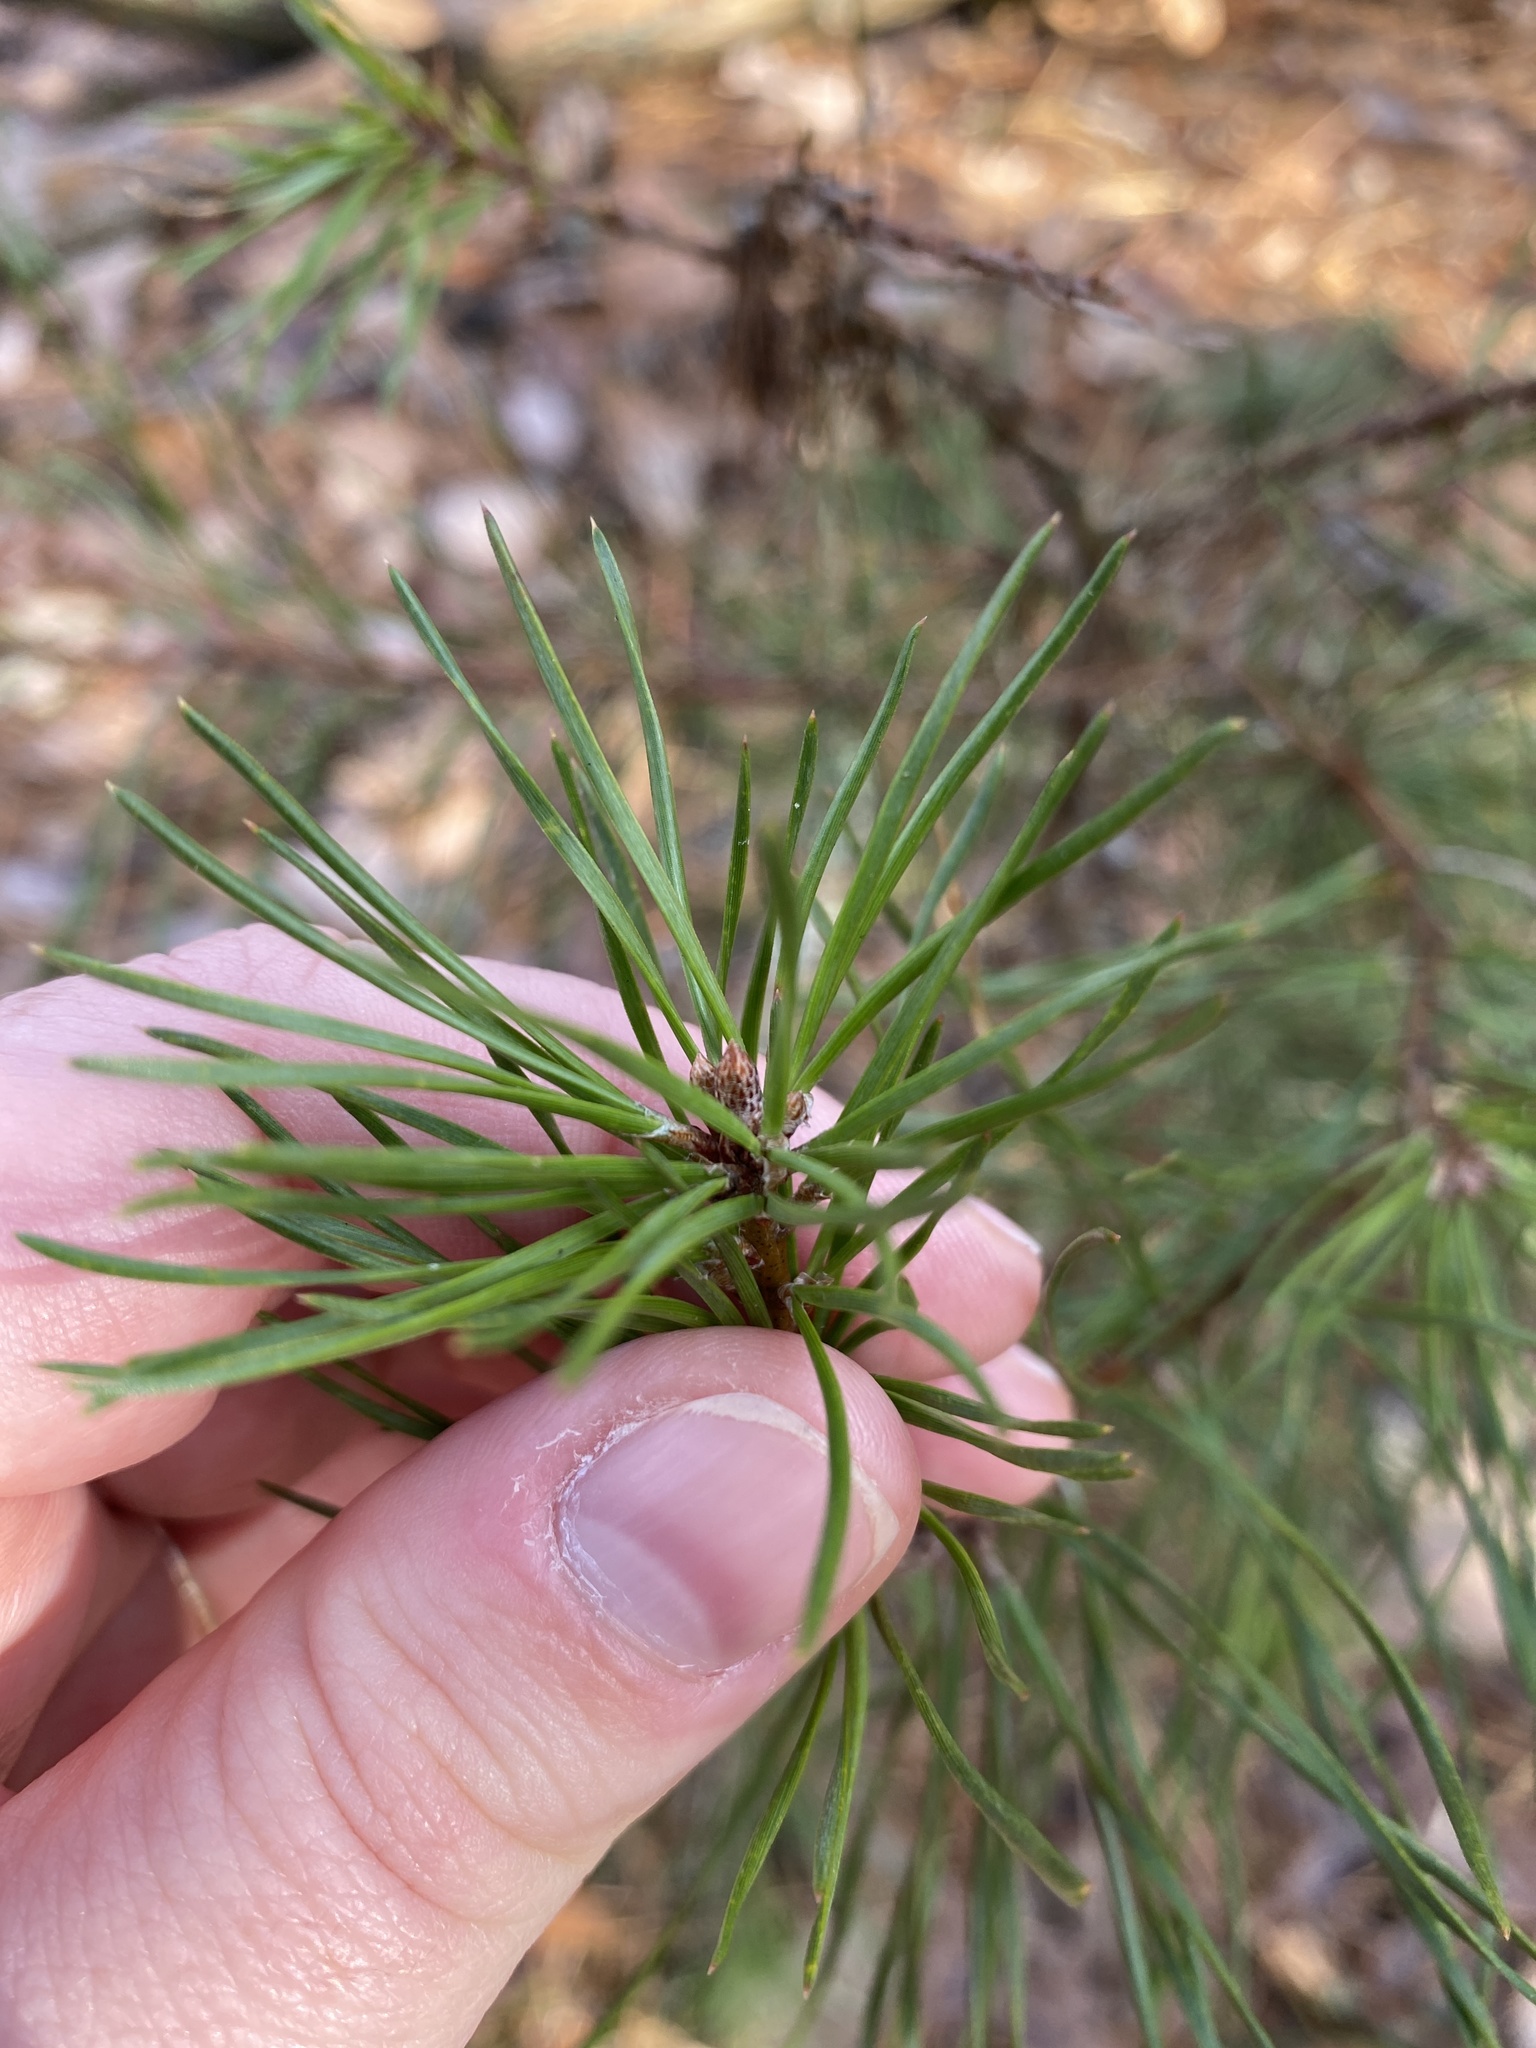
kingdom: Plantae
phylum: Tracheophyta
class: Pinopsida
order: Pinales
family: Pinaceae
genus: Pinus
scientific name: Pinus virginiana
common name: Scrub pine
